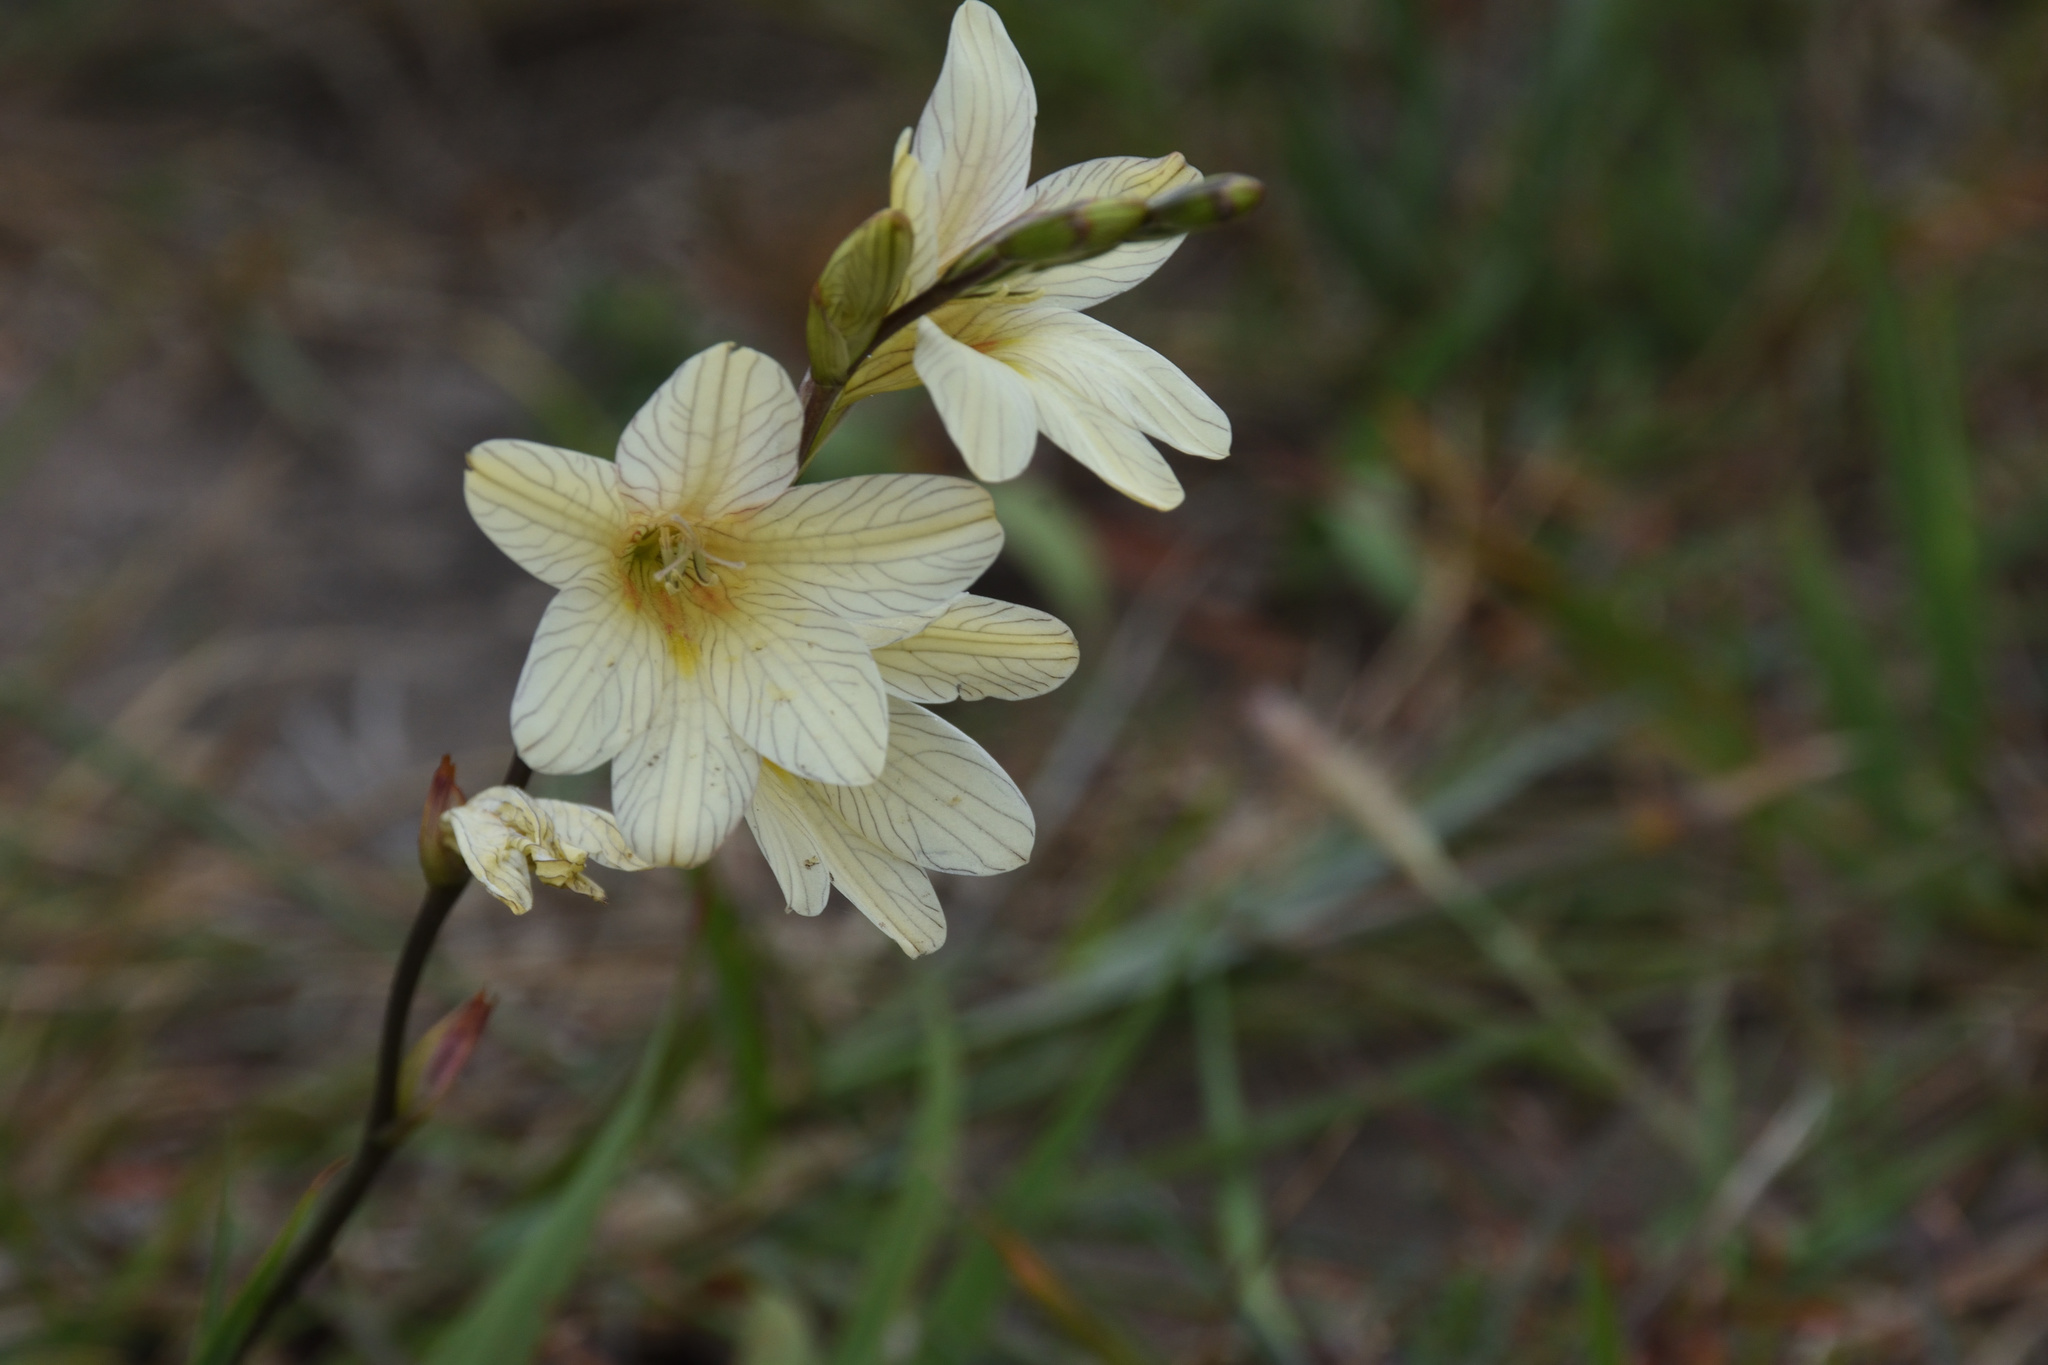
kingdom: Plantae
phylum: Tracheophyta
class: Liliopsida
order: Asparagales
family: Iridaceae
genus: Tritonia
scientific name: Tritonia gladiolaris
